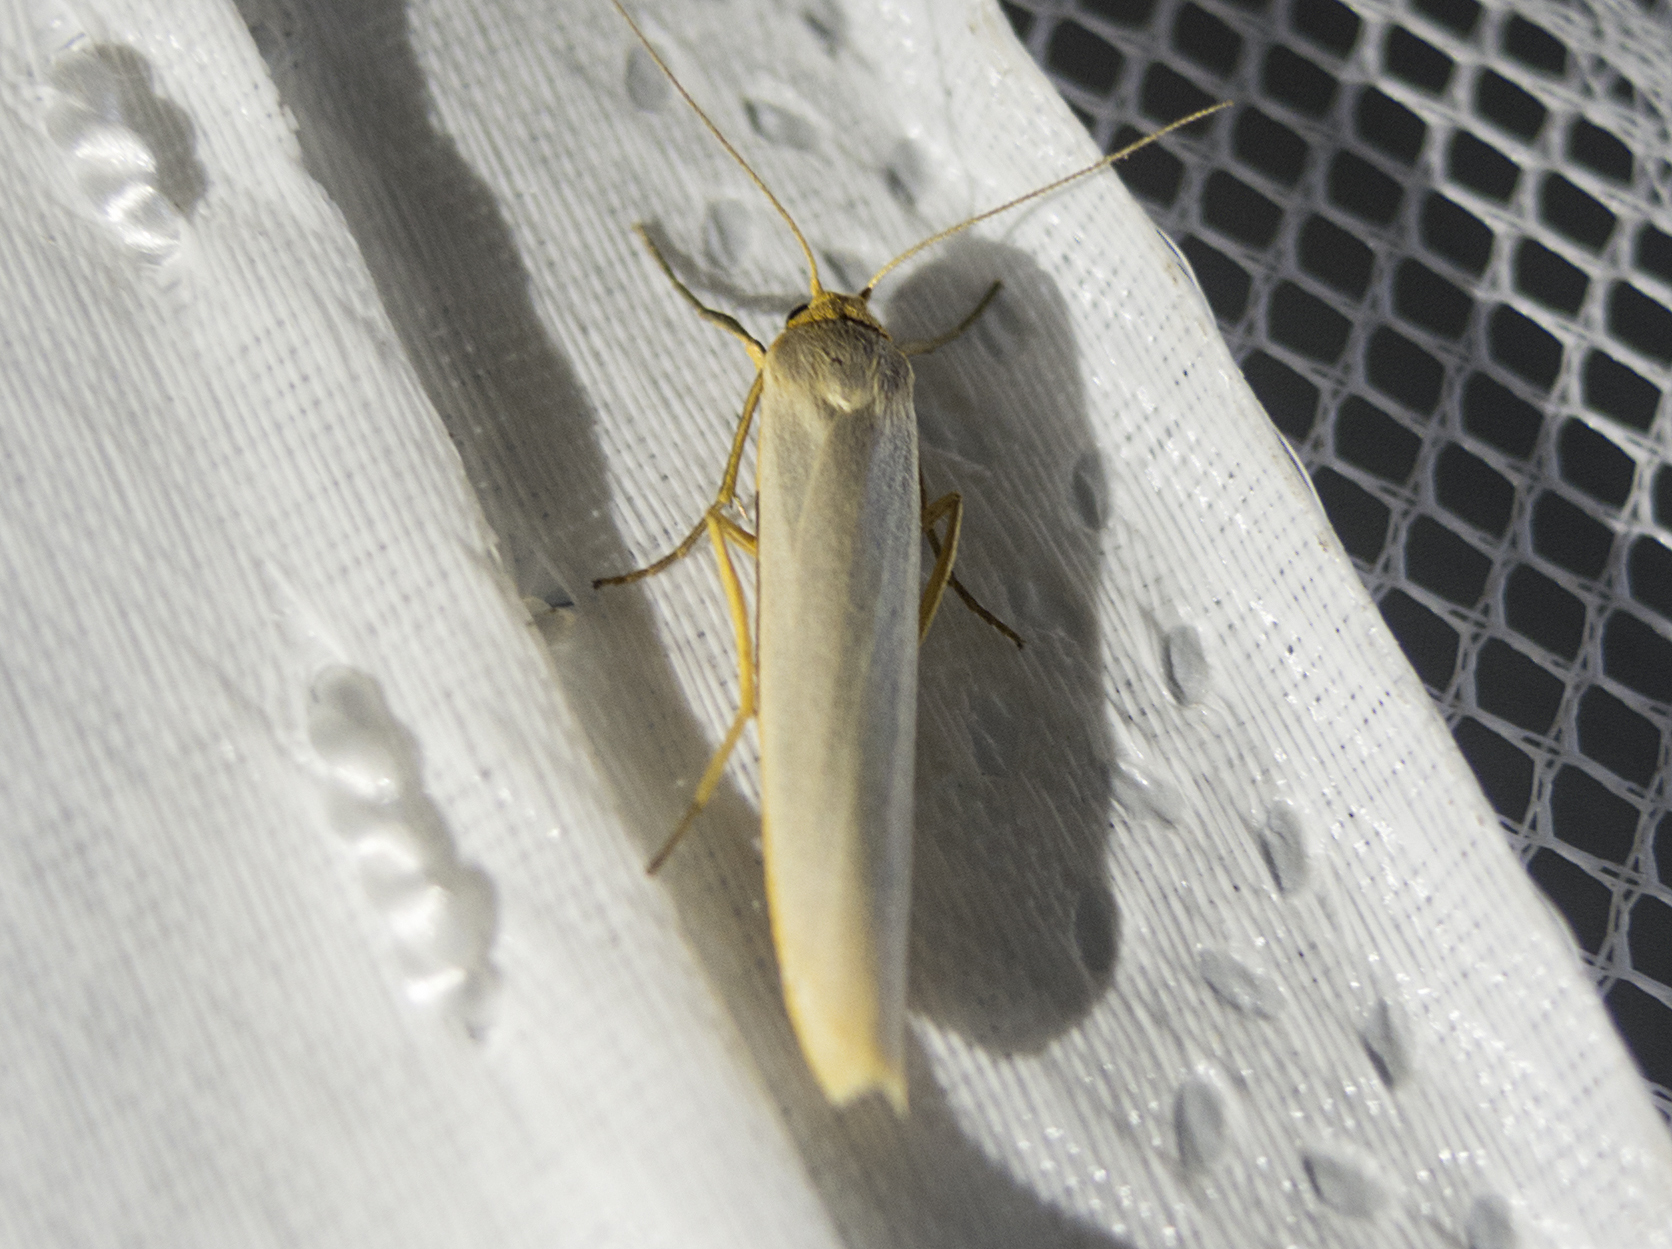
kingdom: Animalia
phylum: Arthropoda
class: Insecta
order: Lepidoptera
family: Erebidae
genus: Eilema
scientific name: Eilema caniola
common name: Hoary footman
